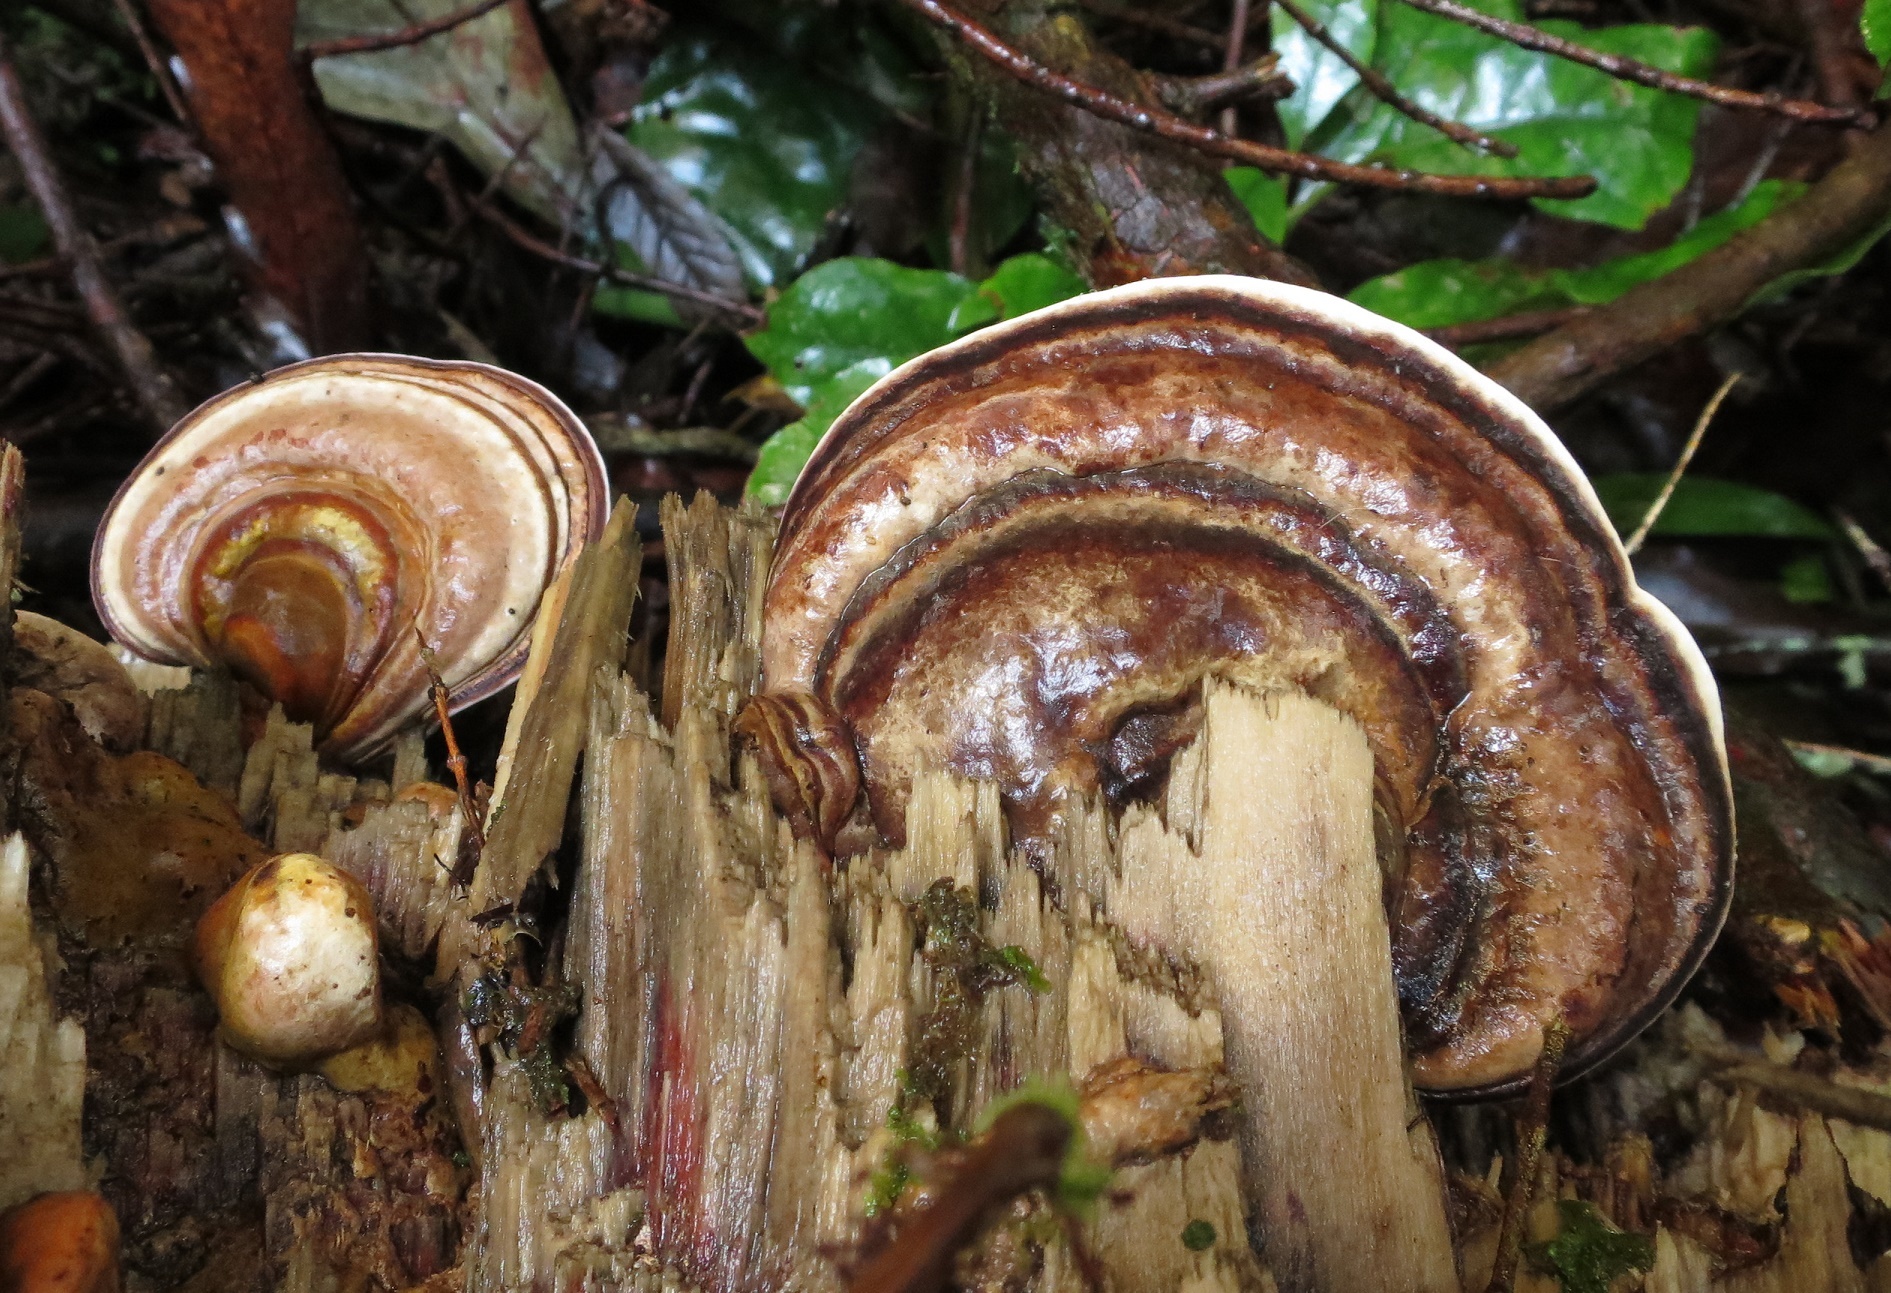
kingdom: Fungi
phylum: Basidiomycota
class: Agaricomycetes
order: Polyporales
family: Fomitopsidaceae
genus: Pilatoporus
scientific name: Pilatoporus hemitephrus
